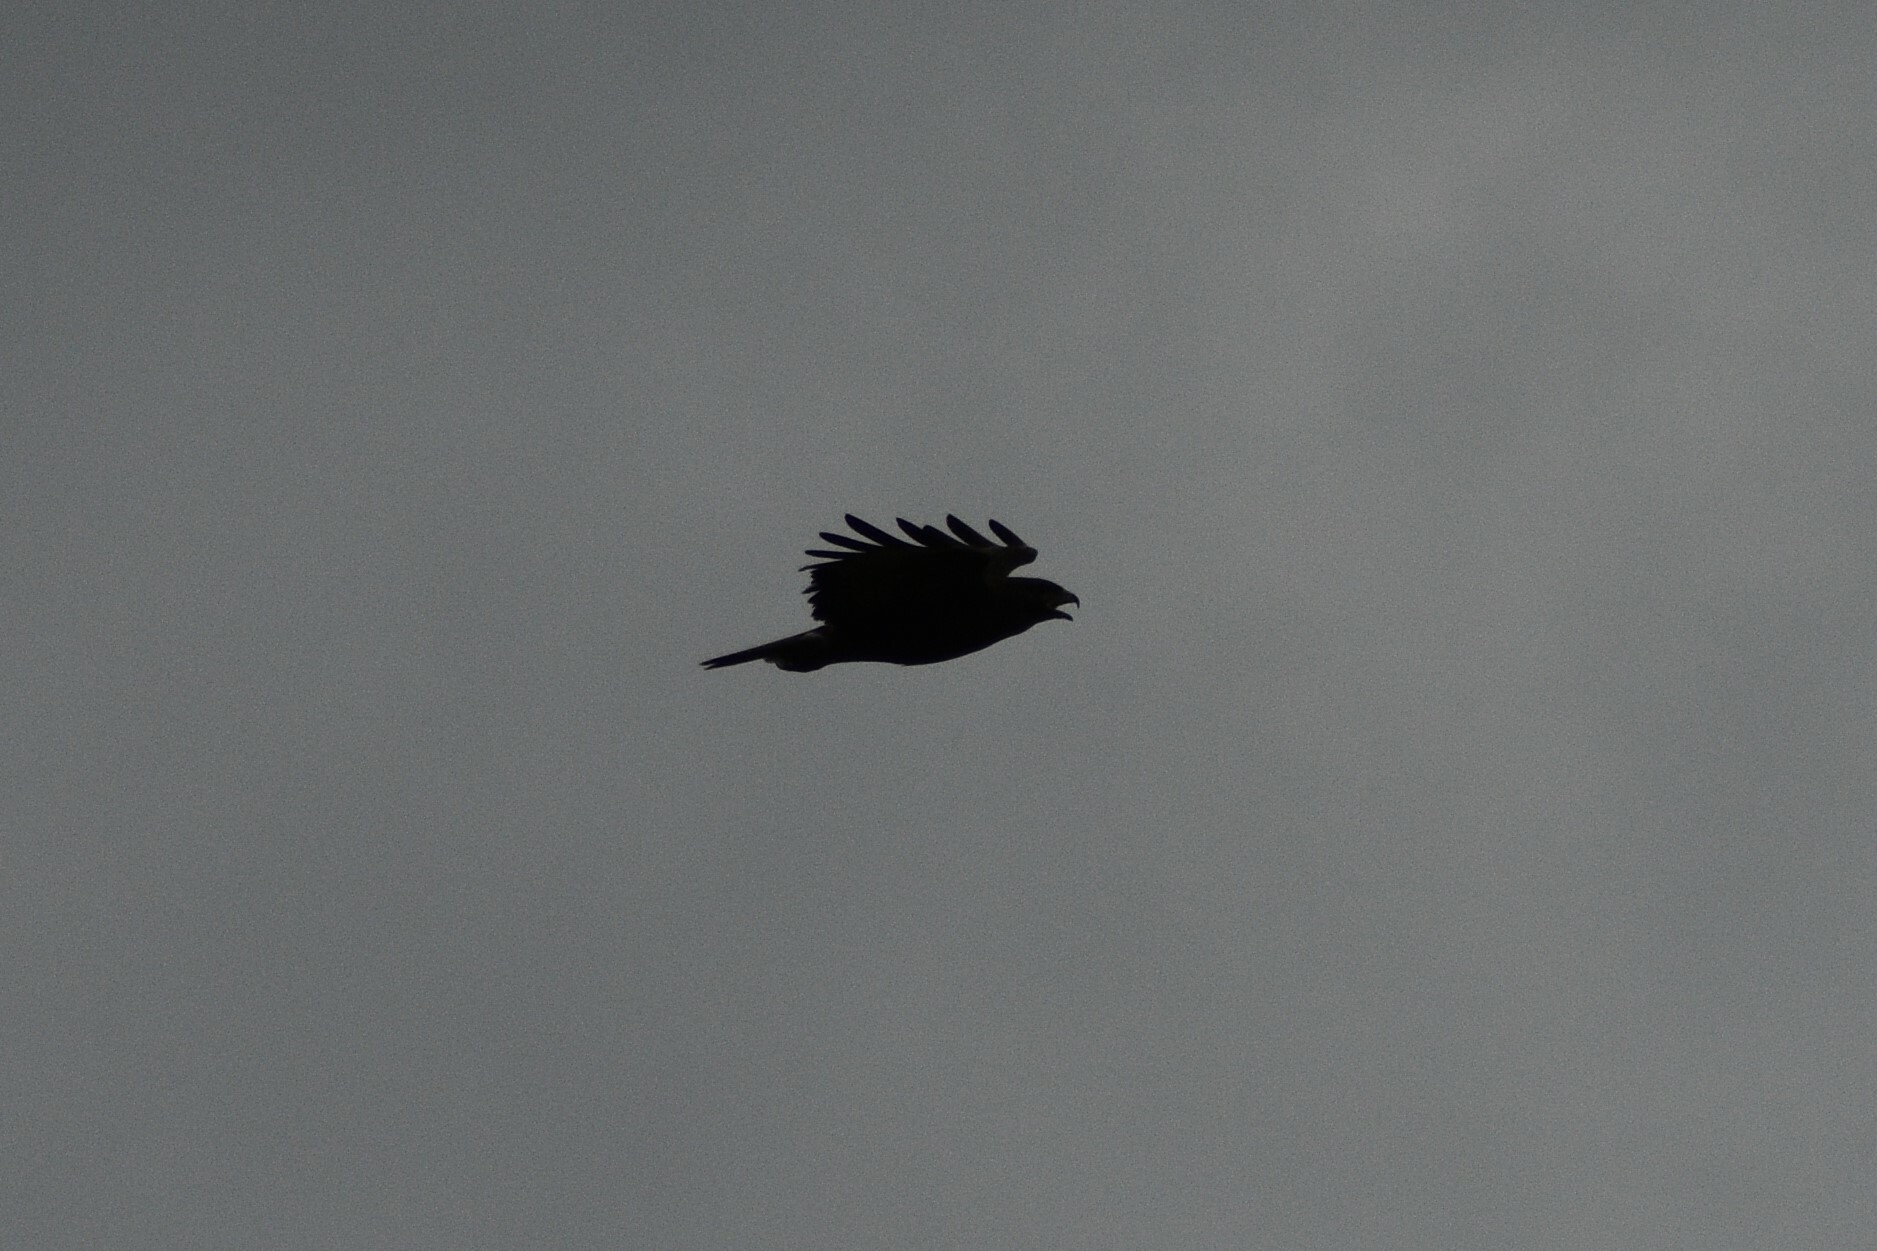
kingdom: Animalia
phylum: Chordata
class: Aves
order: Accipitriformes
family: Accipitridae
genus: Buteo
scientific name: Buteo buteo
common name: Common buzzard
